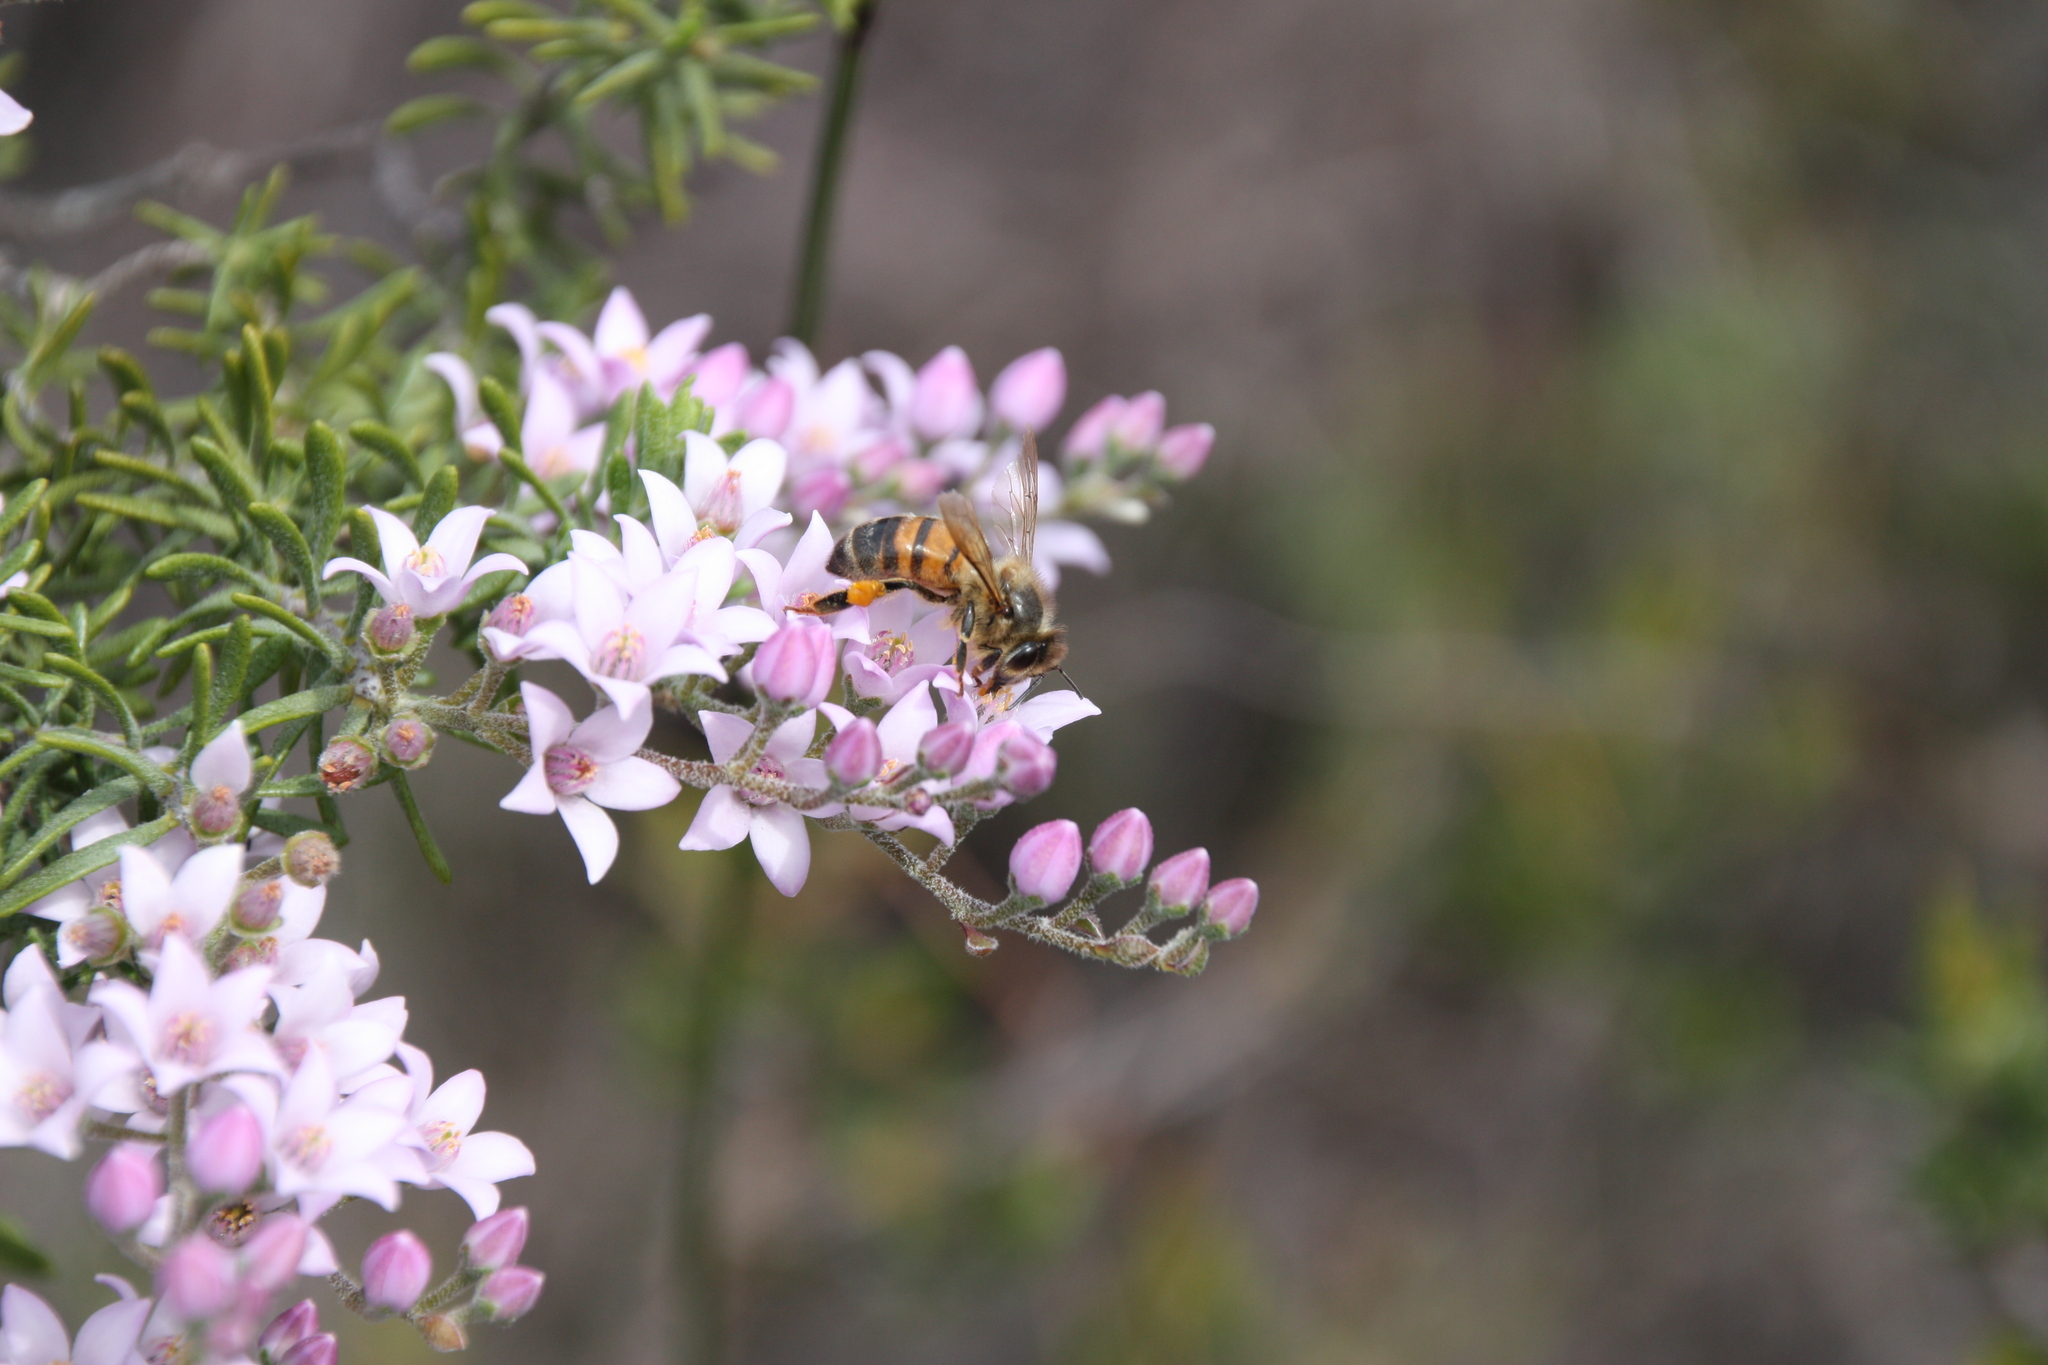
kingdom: Plantae
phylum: Tracheophyta
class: Magnoliopsida
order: Sapindales
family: Rutaceae
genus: Philotheca
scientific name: Philotheca spicata
